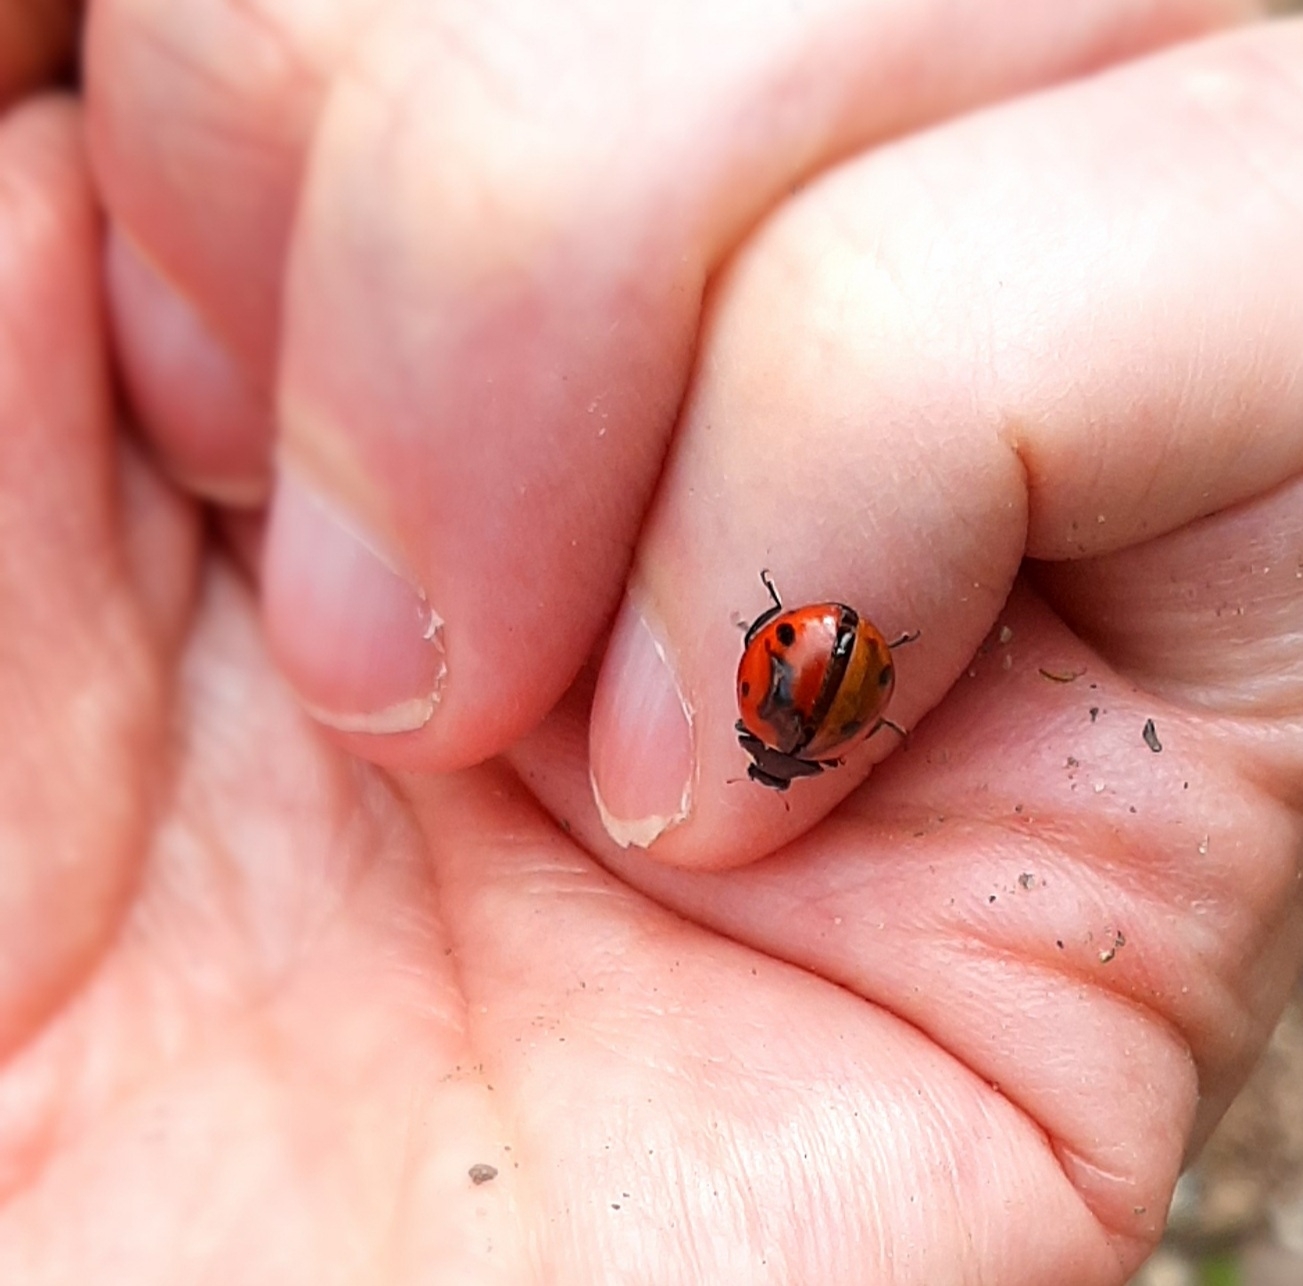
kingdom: Animalia
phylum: Arthropoda
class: Insecta
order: Coleoptera
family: Coccinellidae
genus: Coccinella
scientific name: Coccinella septempunctata
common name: Sevenspotted lady beetle
